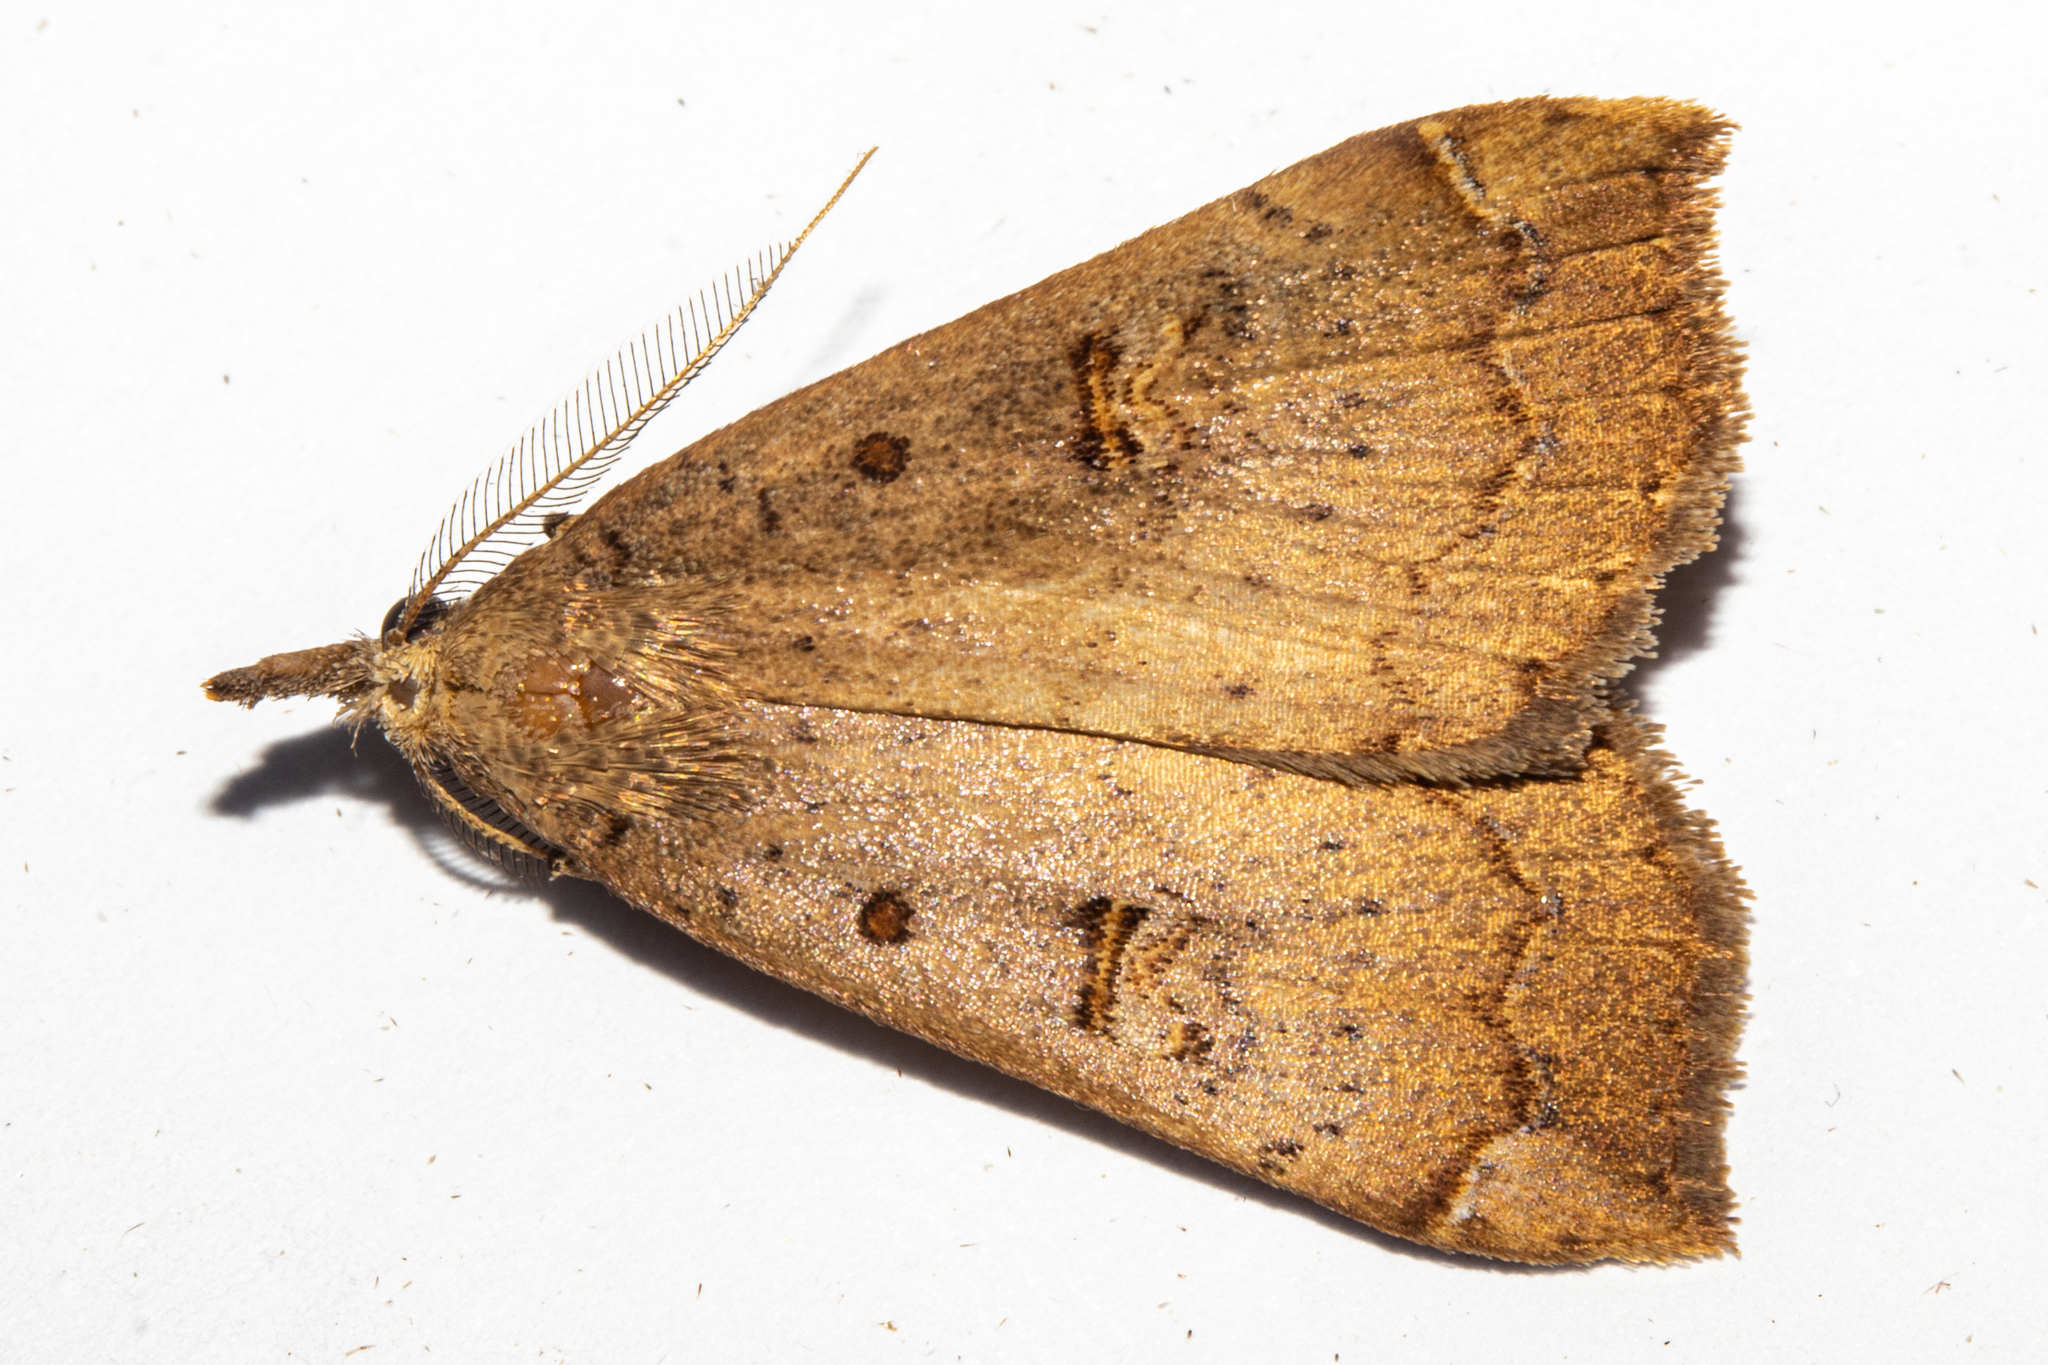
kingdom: Animalia
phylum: Arthropoda
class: Insecta
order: Lepidoptera
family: Erebidae
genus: Rhapsa
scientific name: Rhapsa scotosialis
